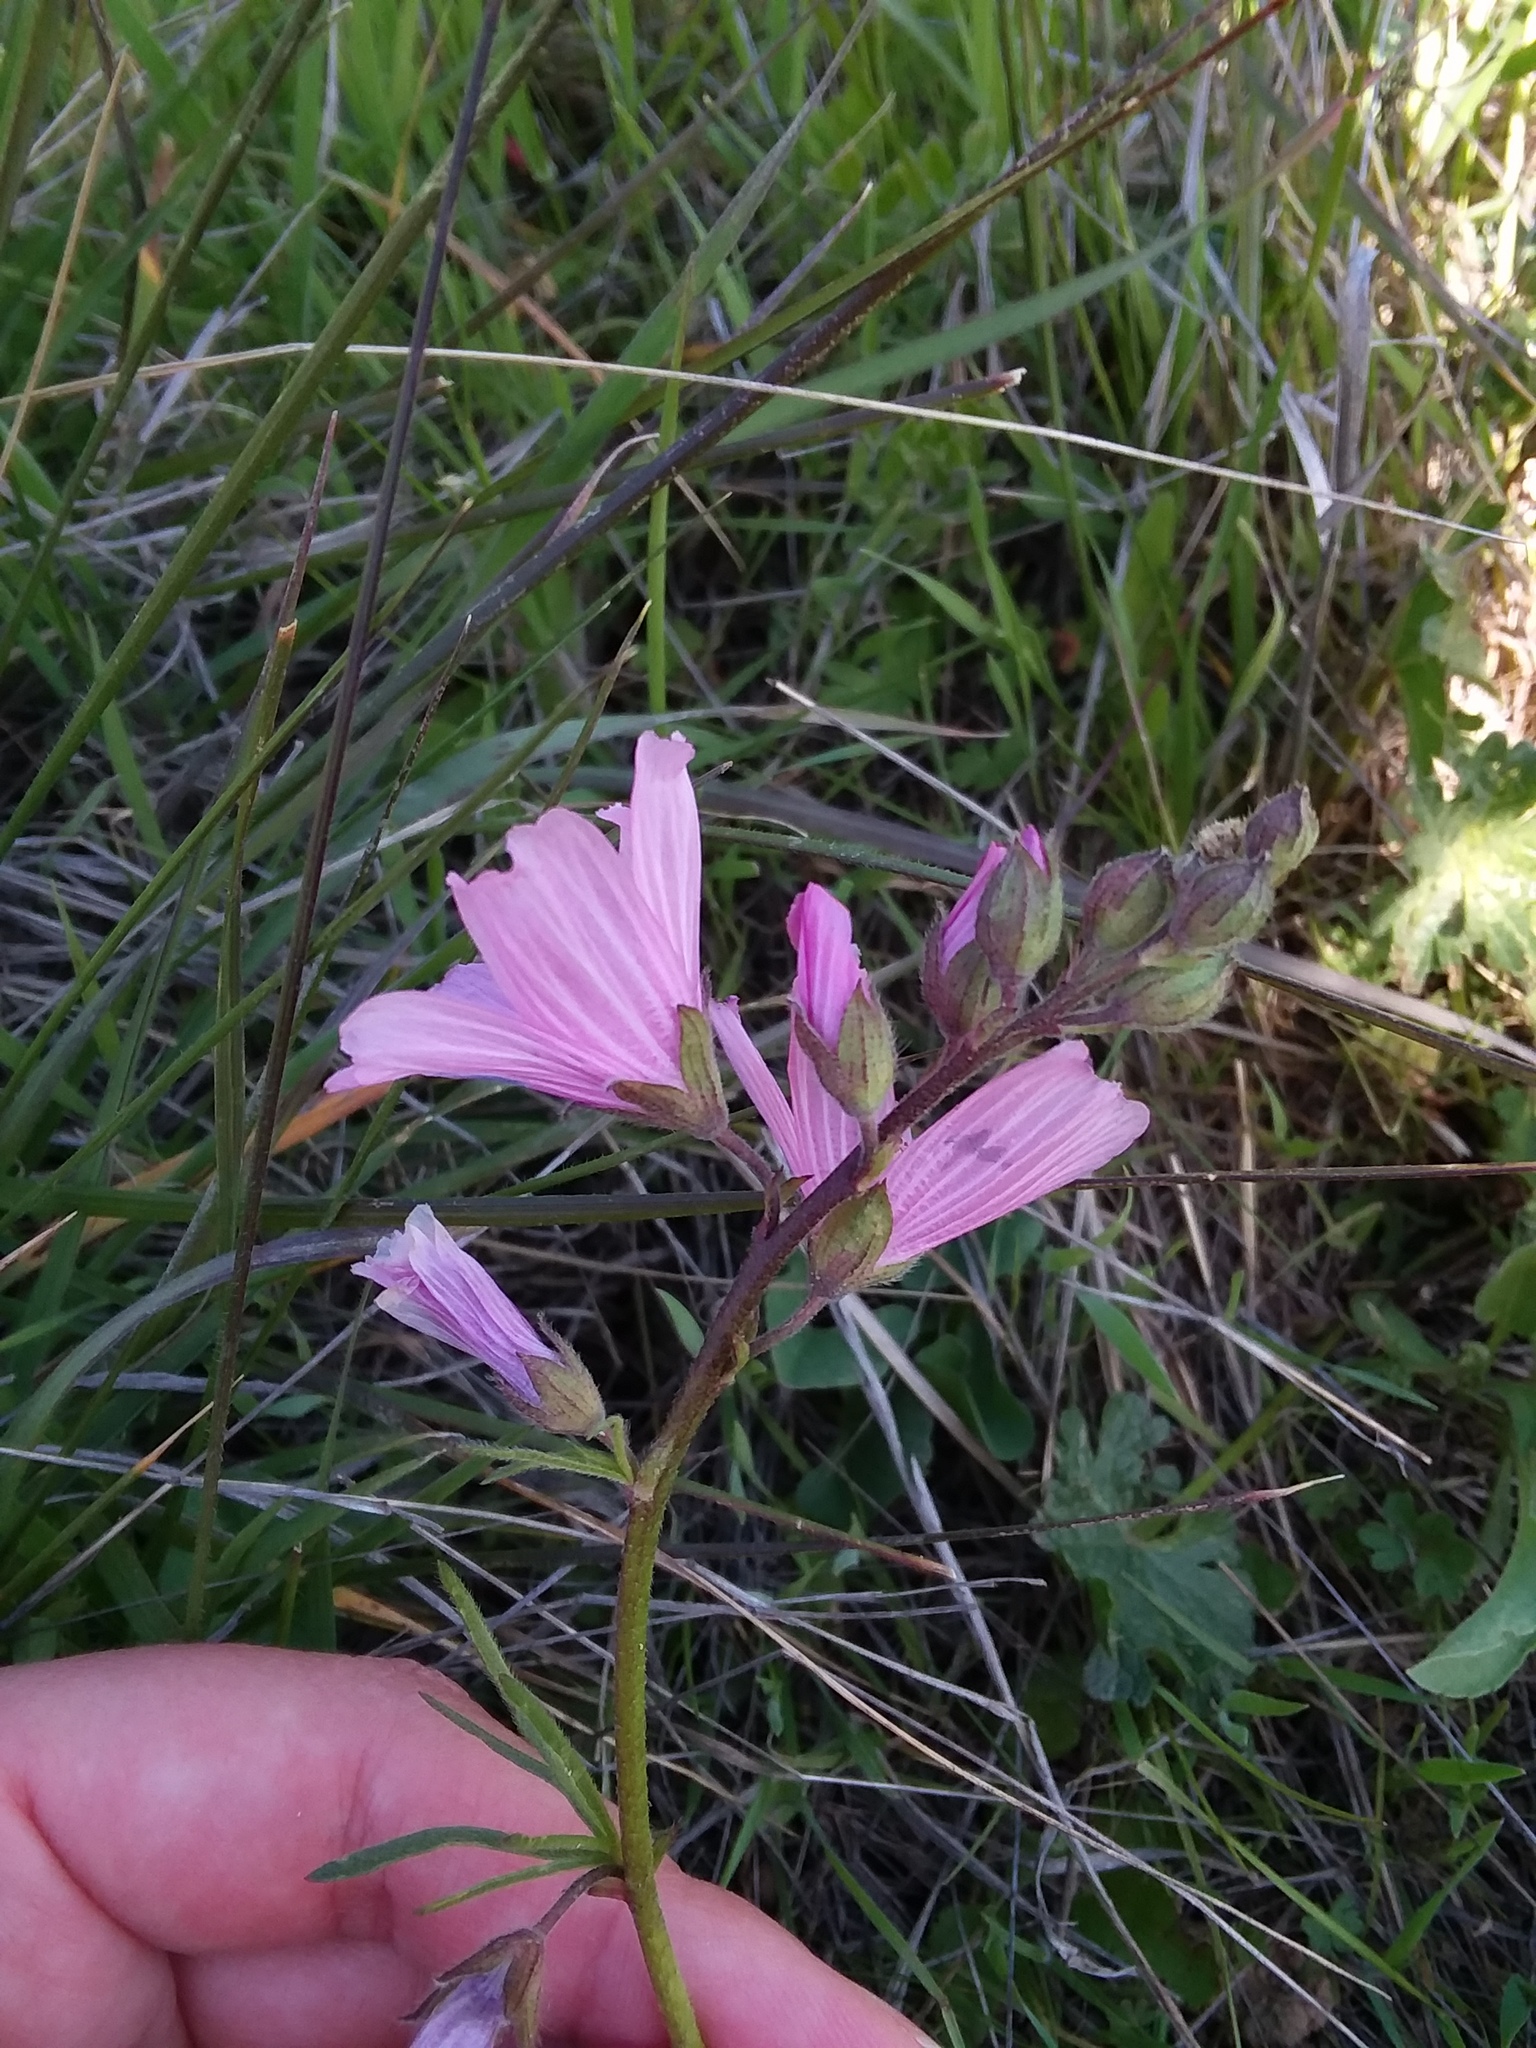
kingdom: Plantae
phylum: Tracheophyta
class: Magnoliopsida
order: Malvales
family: Malvaceae
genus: Sidalcea
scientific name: Sidalcea malviflora
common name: Greek mallow
